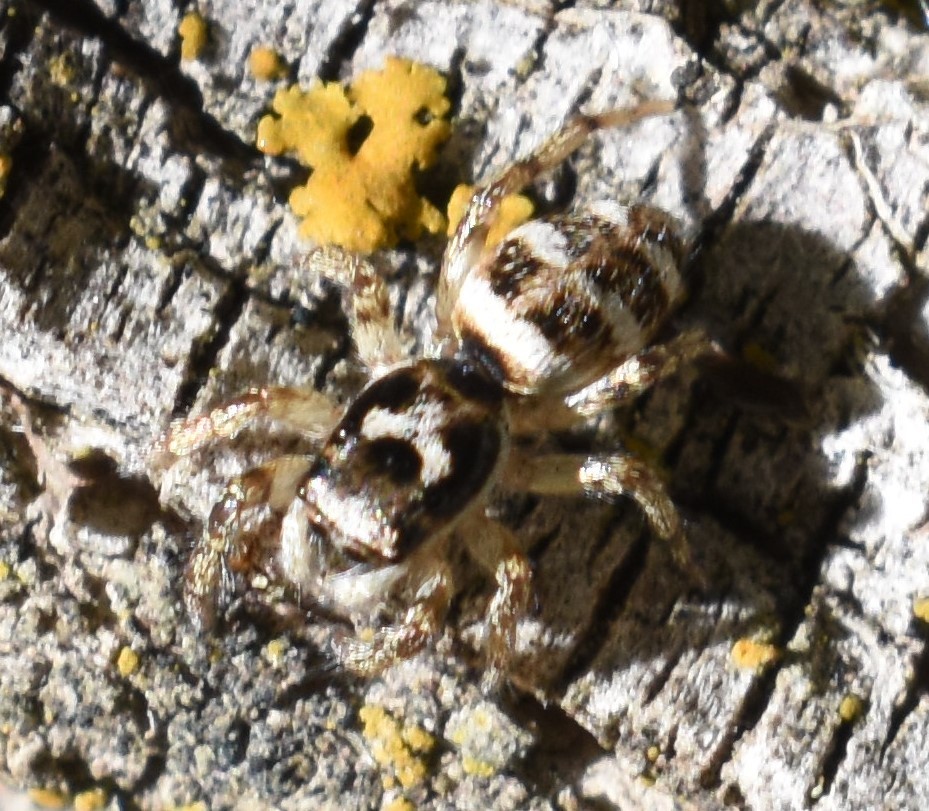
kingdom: Animalia
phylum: Arthropoda
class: Arachnida
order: Araneae
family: Salticidae
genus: Salticus
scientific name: Salticus scenicus
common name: Zebra jumper
